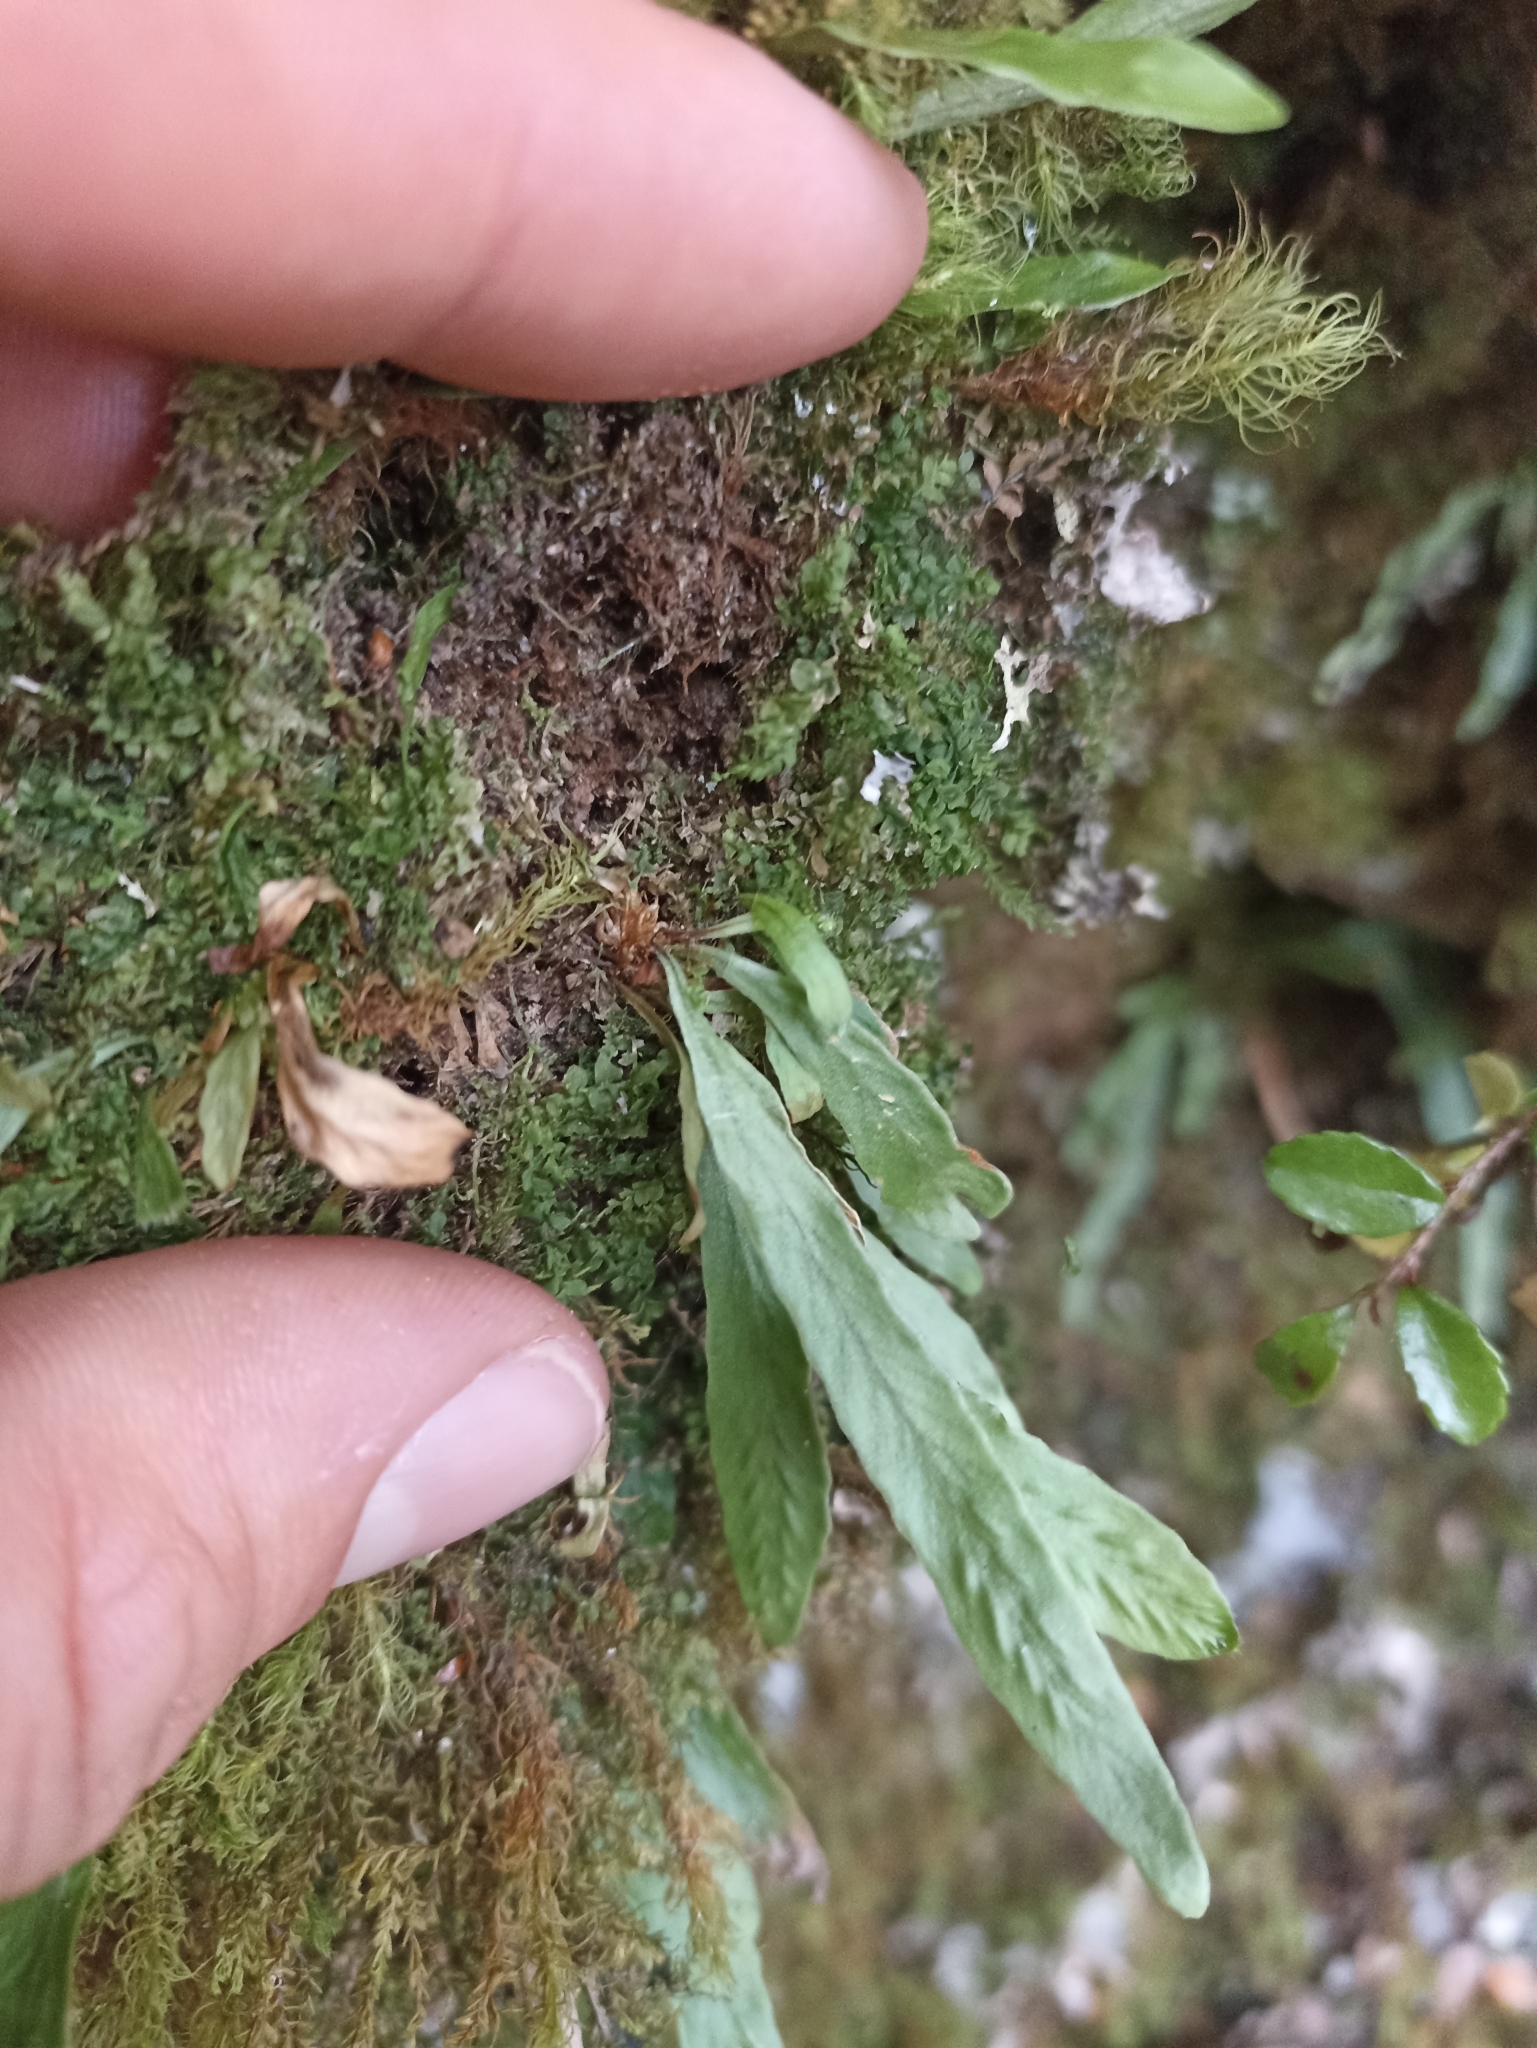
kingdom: Plantae
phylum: Tracheophyta
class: Polypodiopsida
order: Polypodiales
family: Polypodiaceae
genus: Notogrammitis
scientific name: Notogrammitis billardierei
